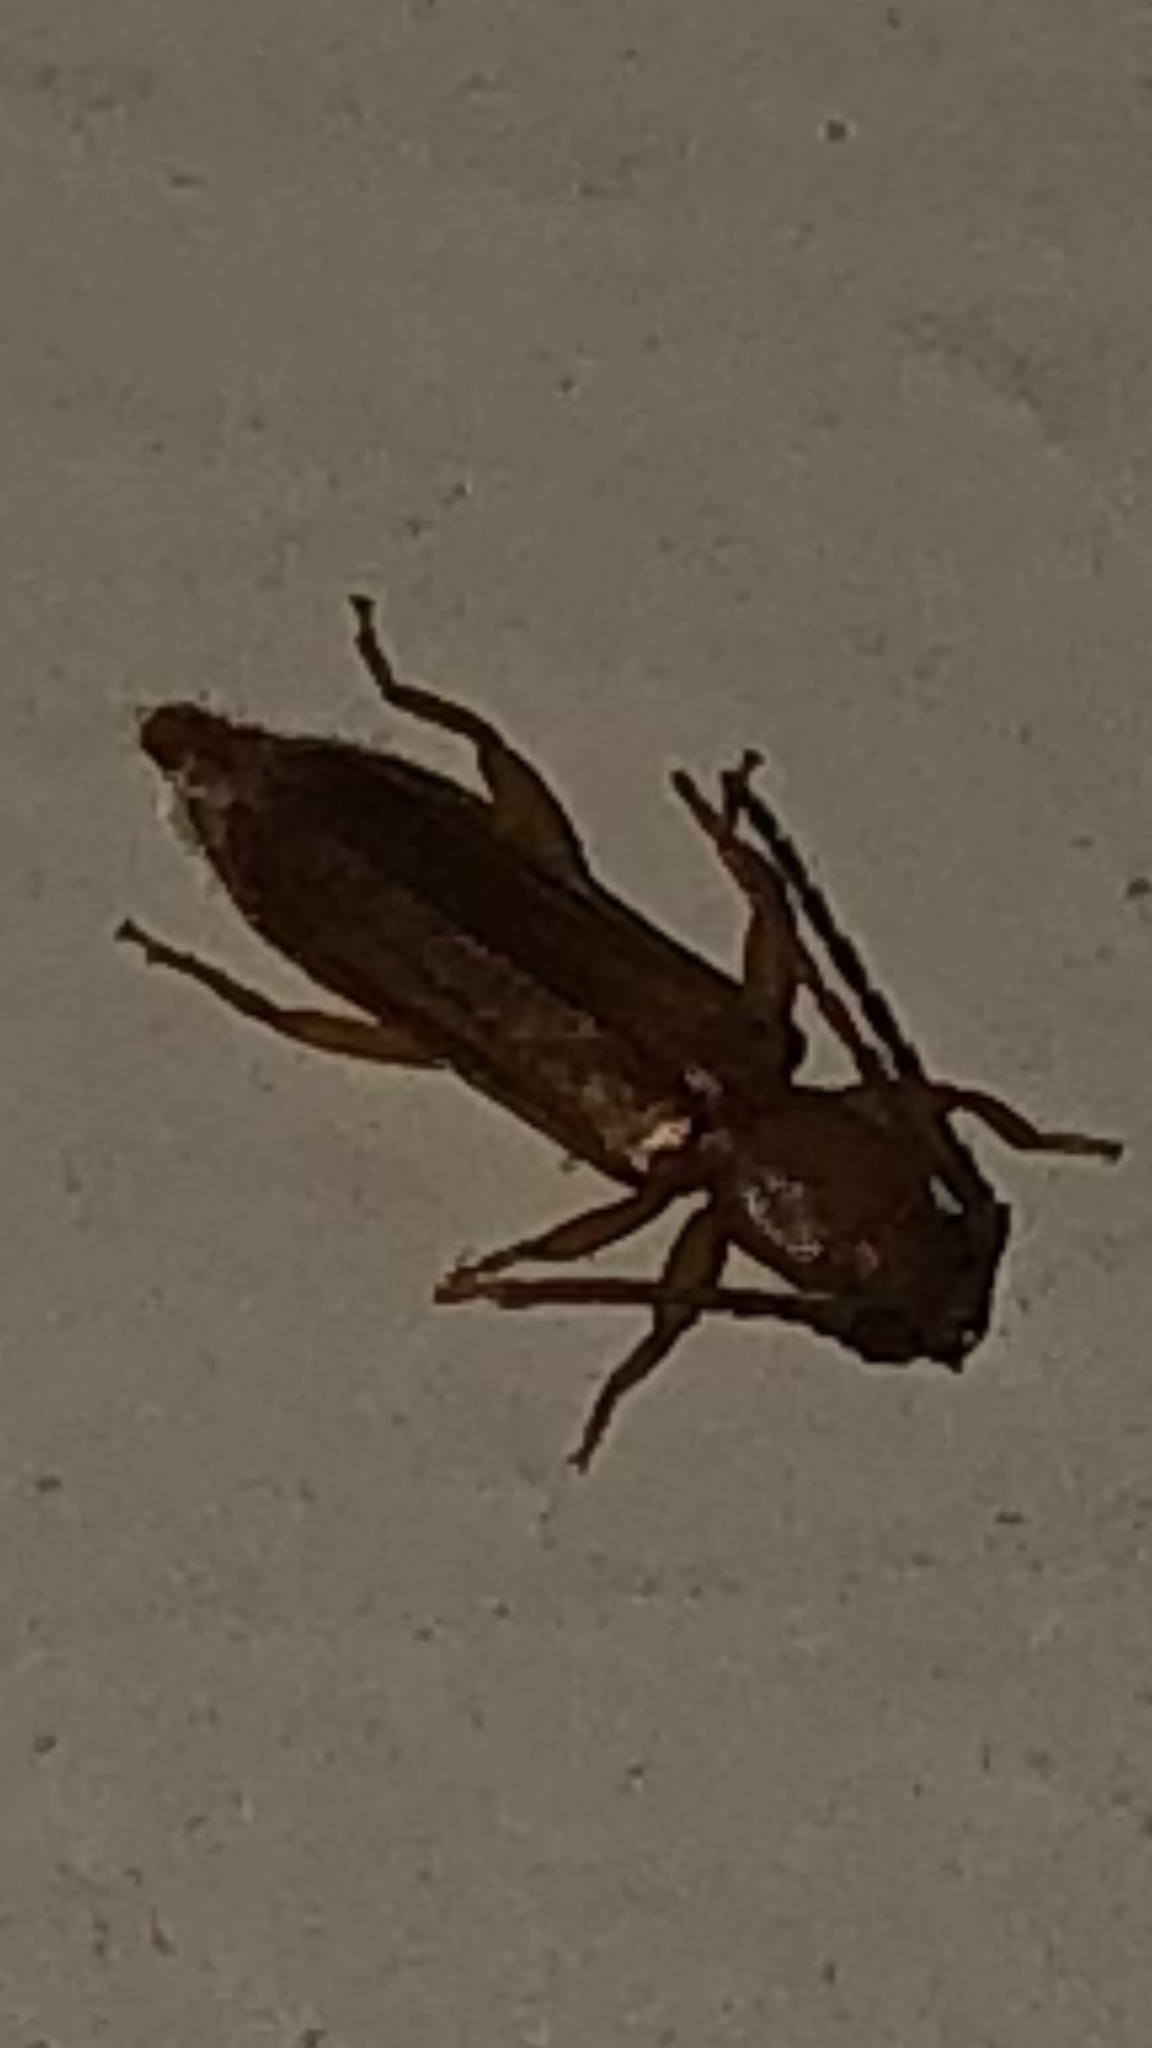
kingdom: Animalia
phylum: Arthropoda
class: Insecta
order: Coleoptera
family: Cerambycidae
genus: Smodicum
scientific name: Smodicum cucujiforme
